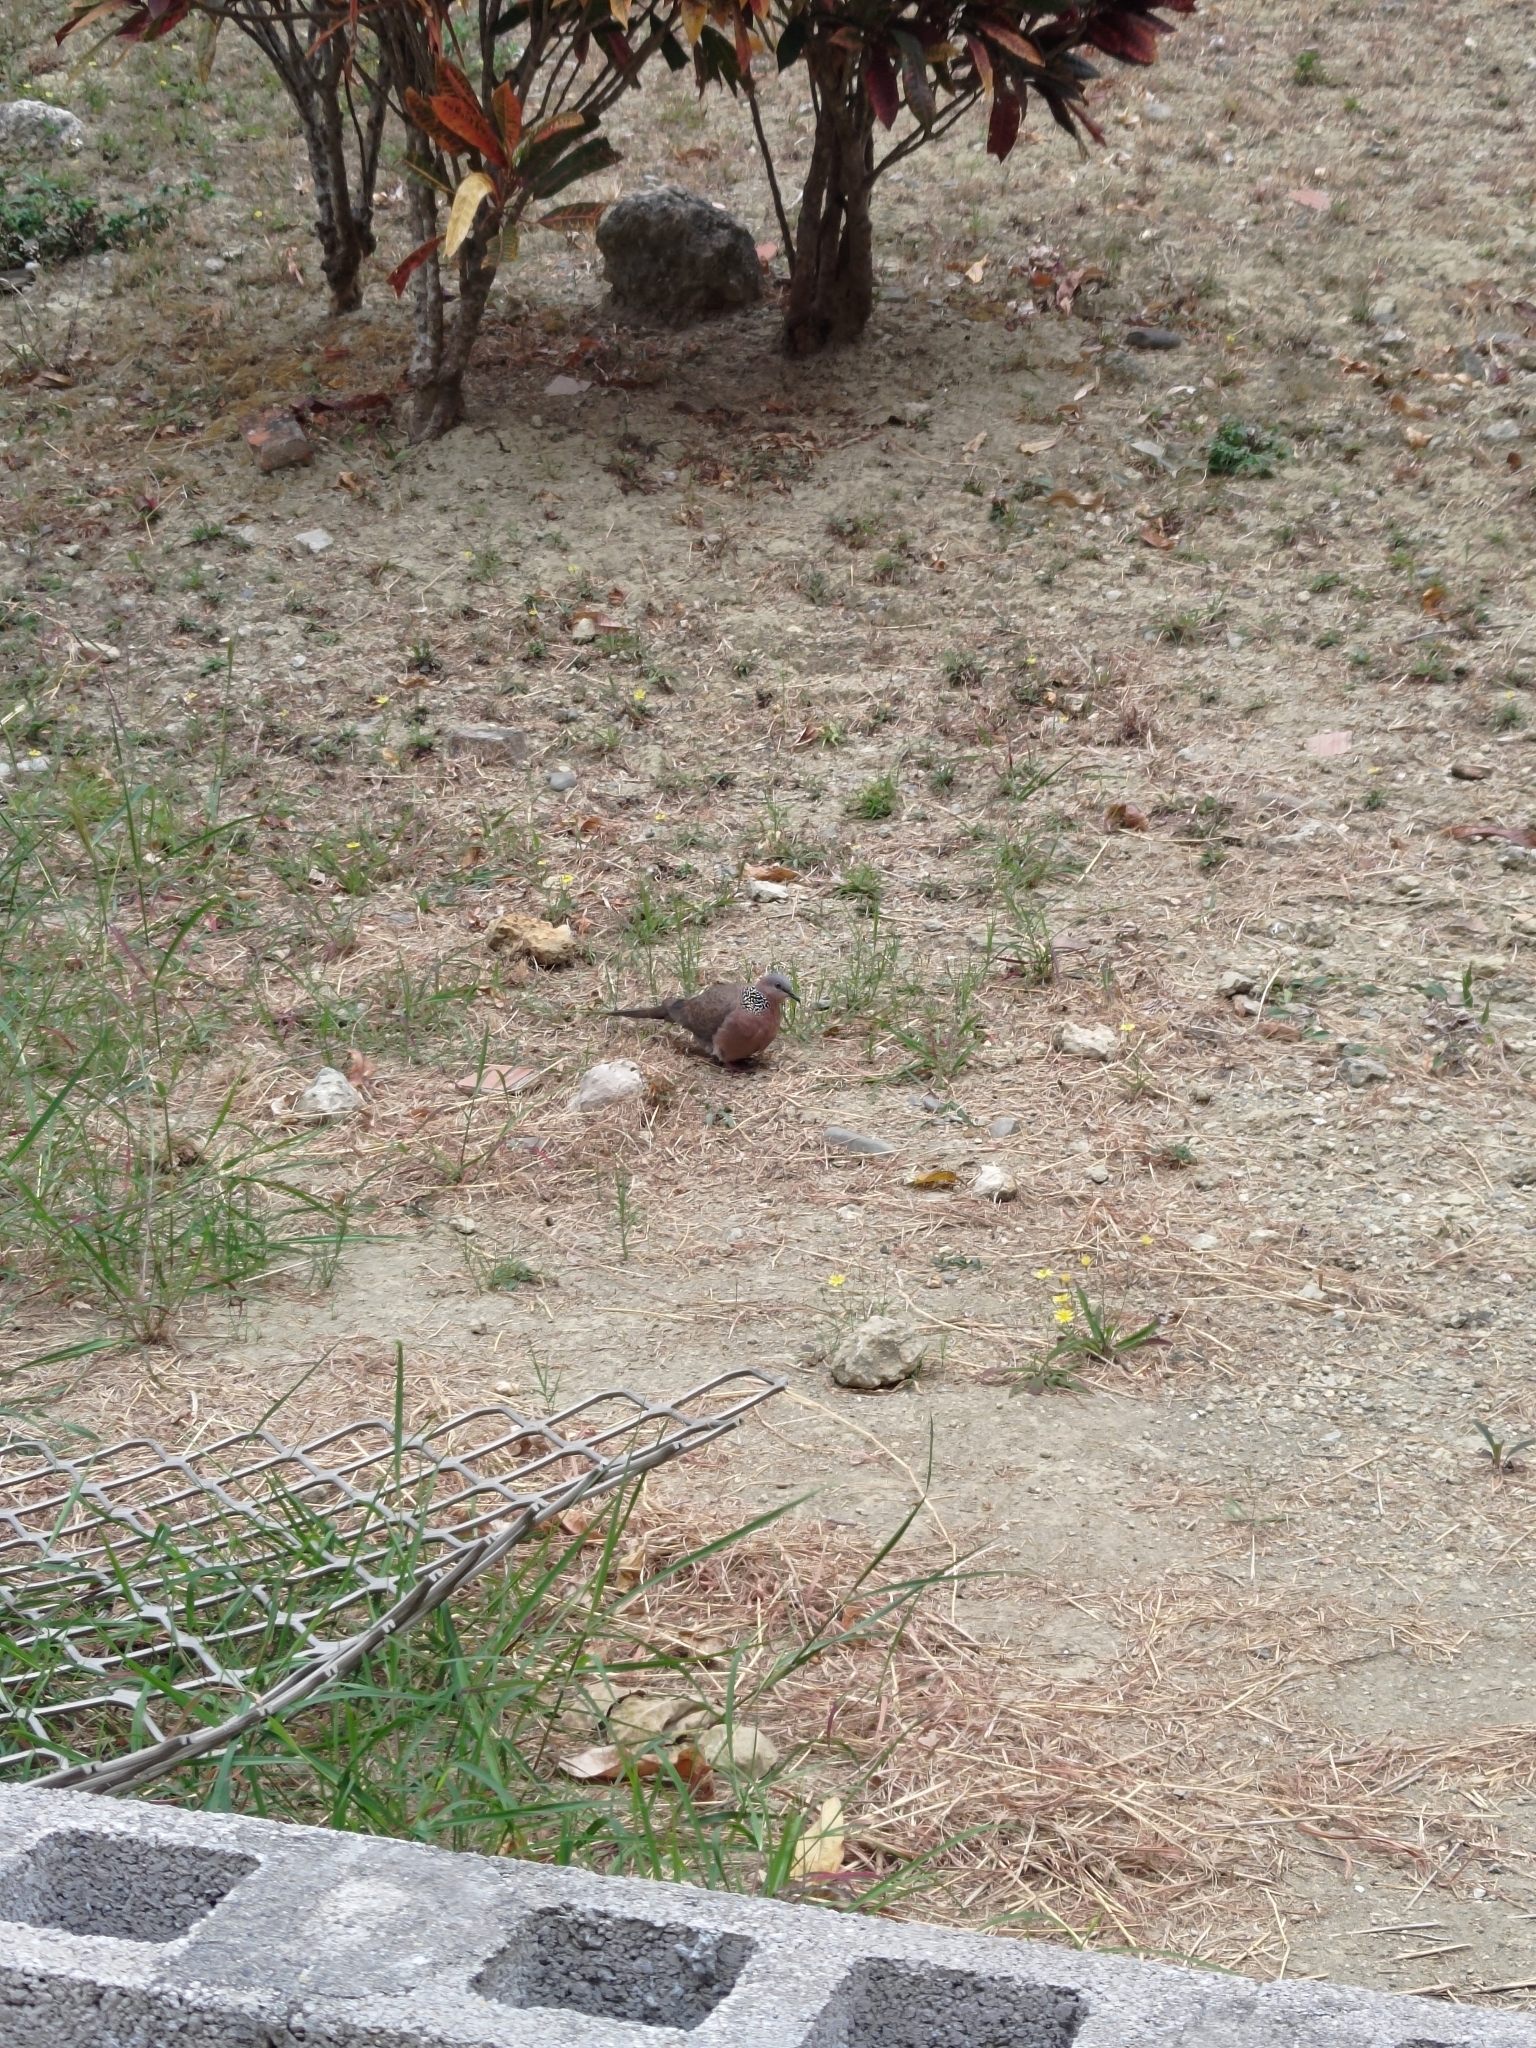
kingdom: Animalia
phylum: Chordata
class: Aves
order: Columbiformes
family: Columbidae
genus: Spilopelia
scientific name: Spilopelia chinensis
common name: Spotted dove
